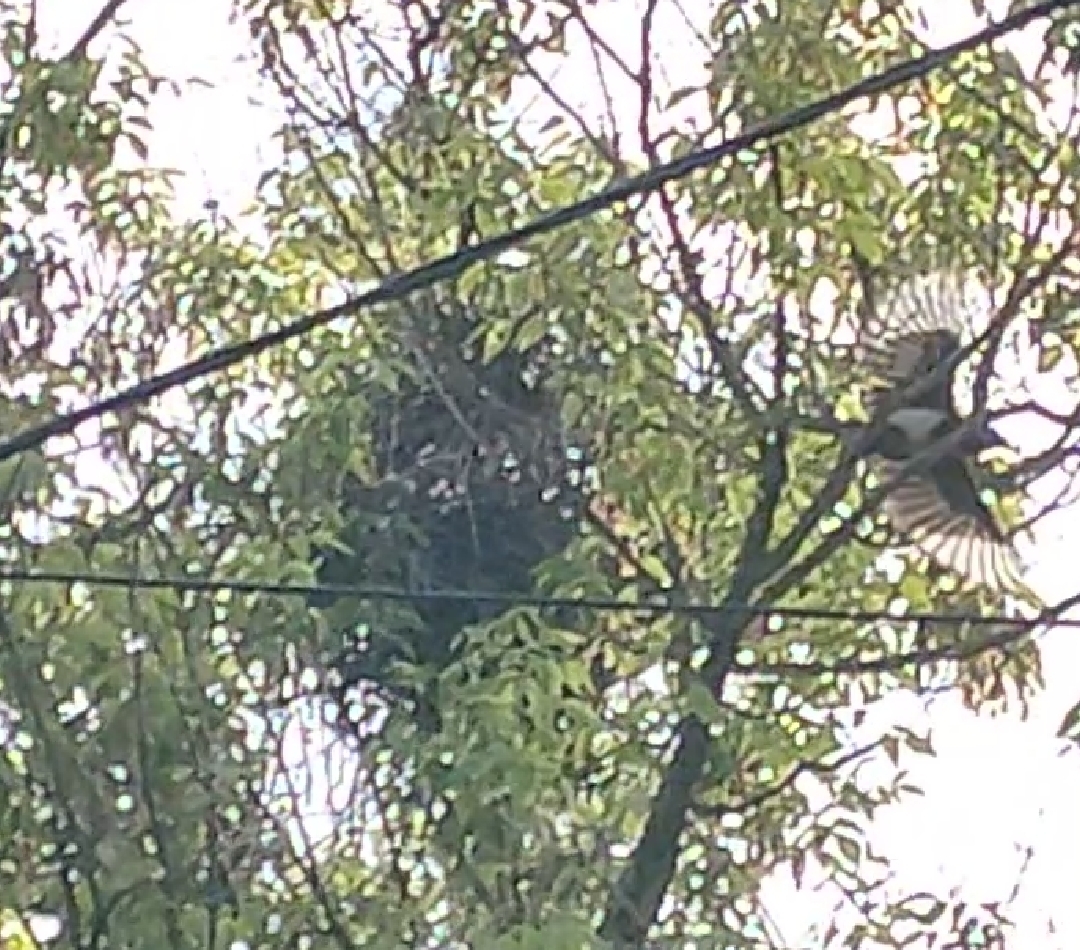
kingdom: Animalia
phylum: Chordata
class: Aves
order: Passeriformes
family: Corvidae
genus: Pica
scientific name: Pica pica
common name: Eurasian magpie
